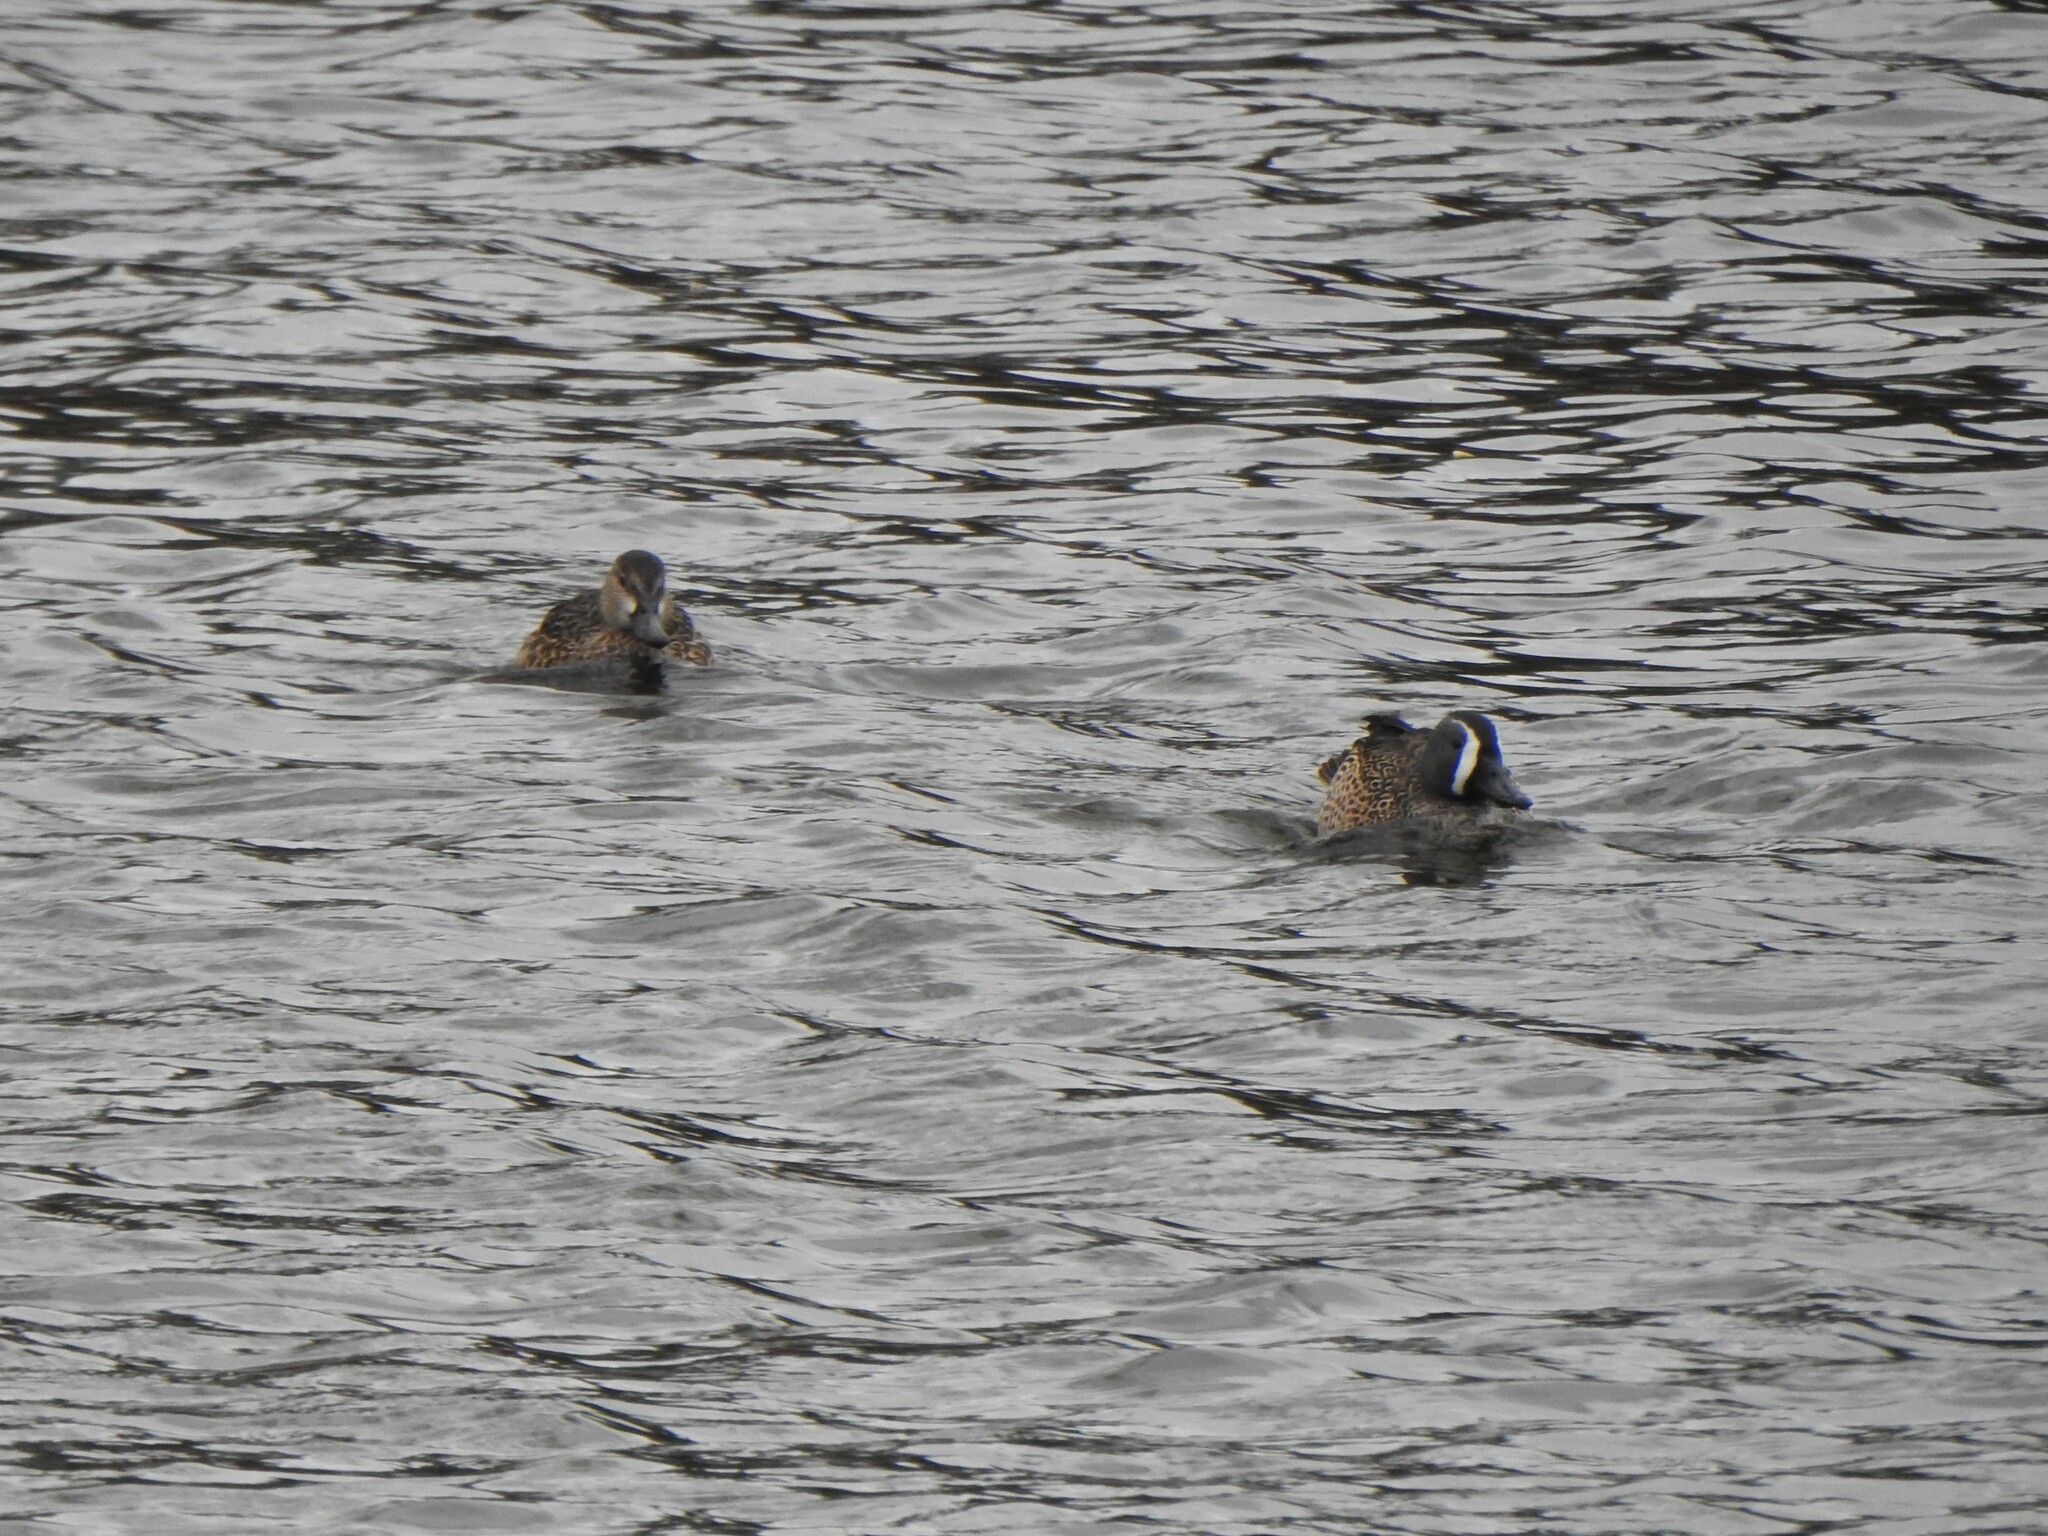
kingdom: Animalia
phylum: Chordata
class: Aves
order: Anseriformes
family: Anatidae
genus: Spatula
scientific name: Spatula discors
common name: Blue-winged teal
